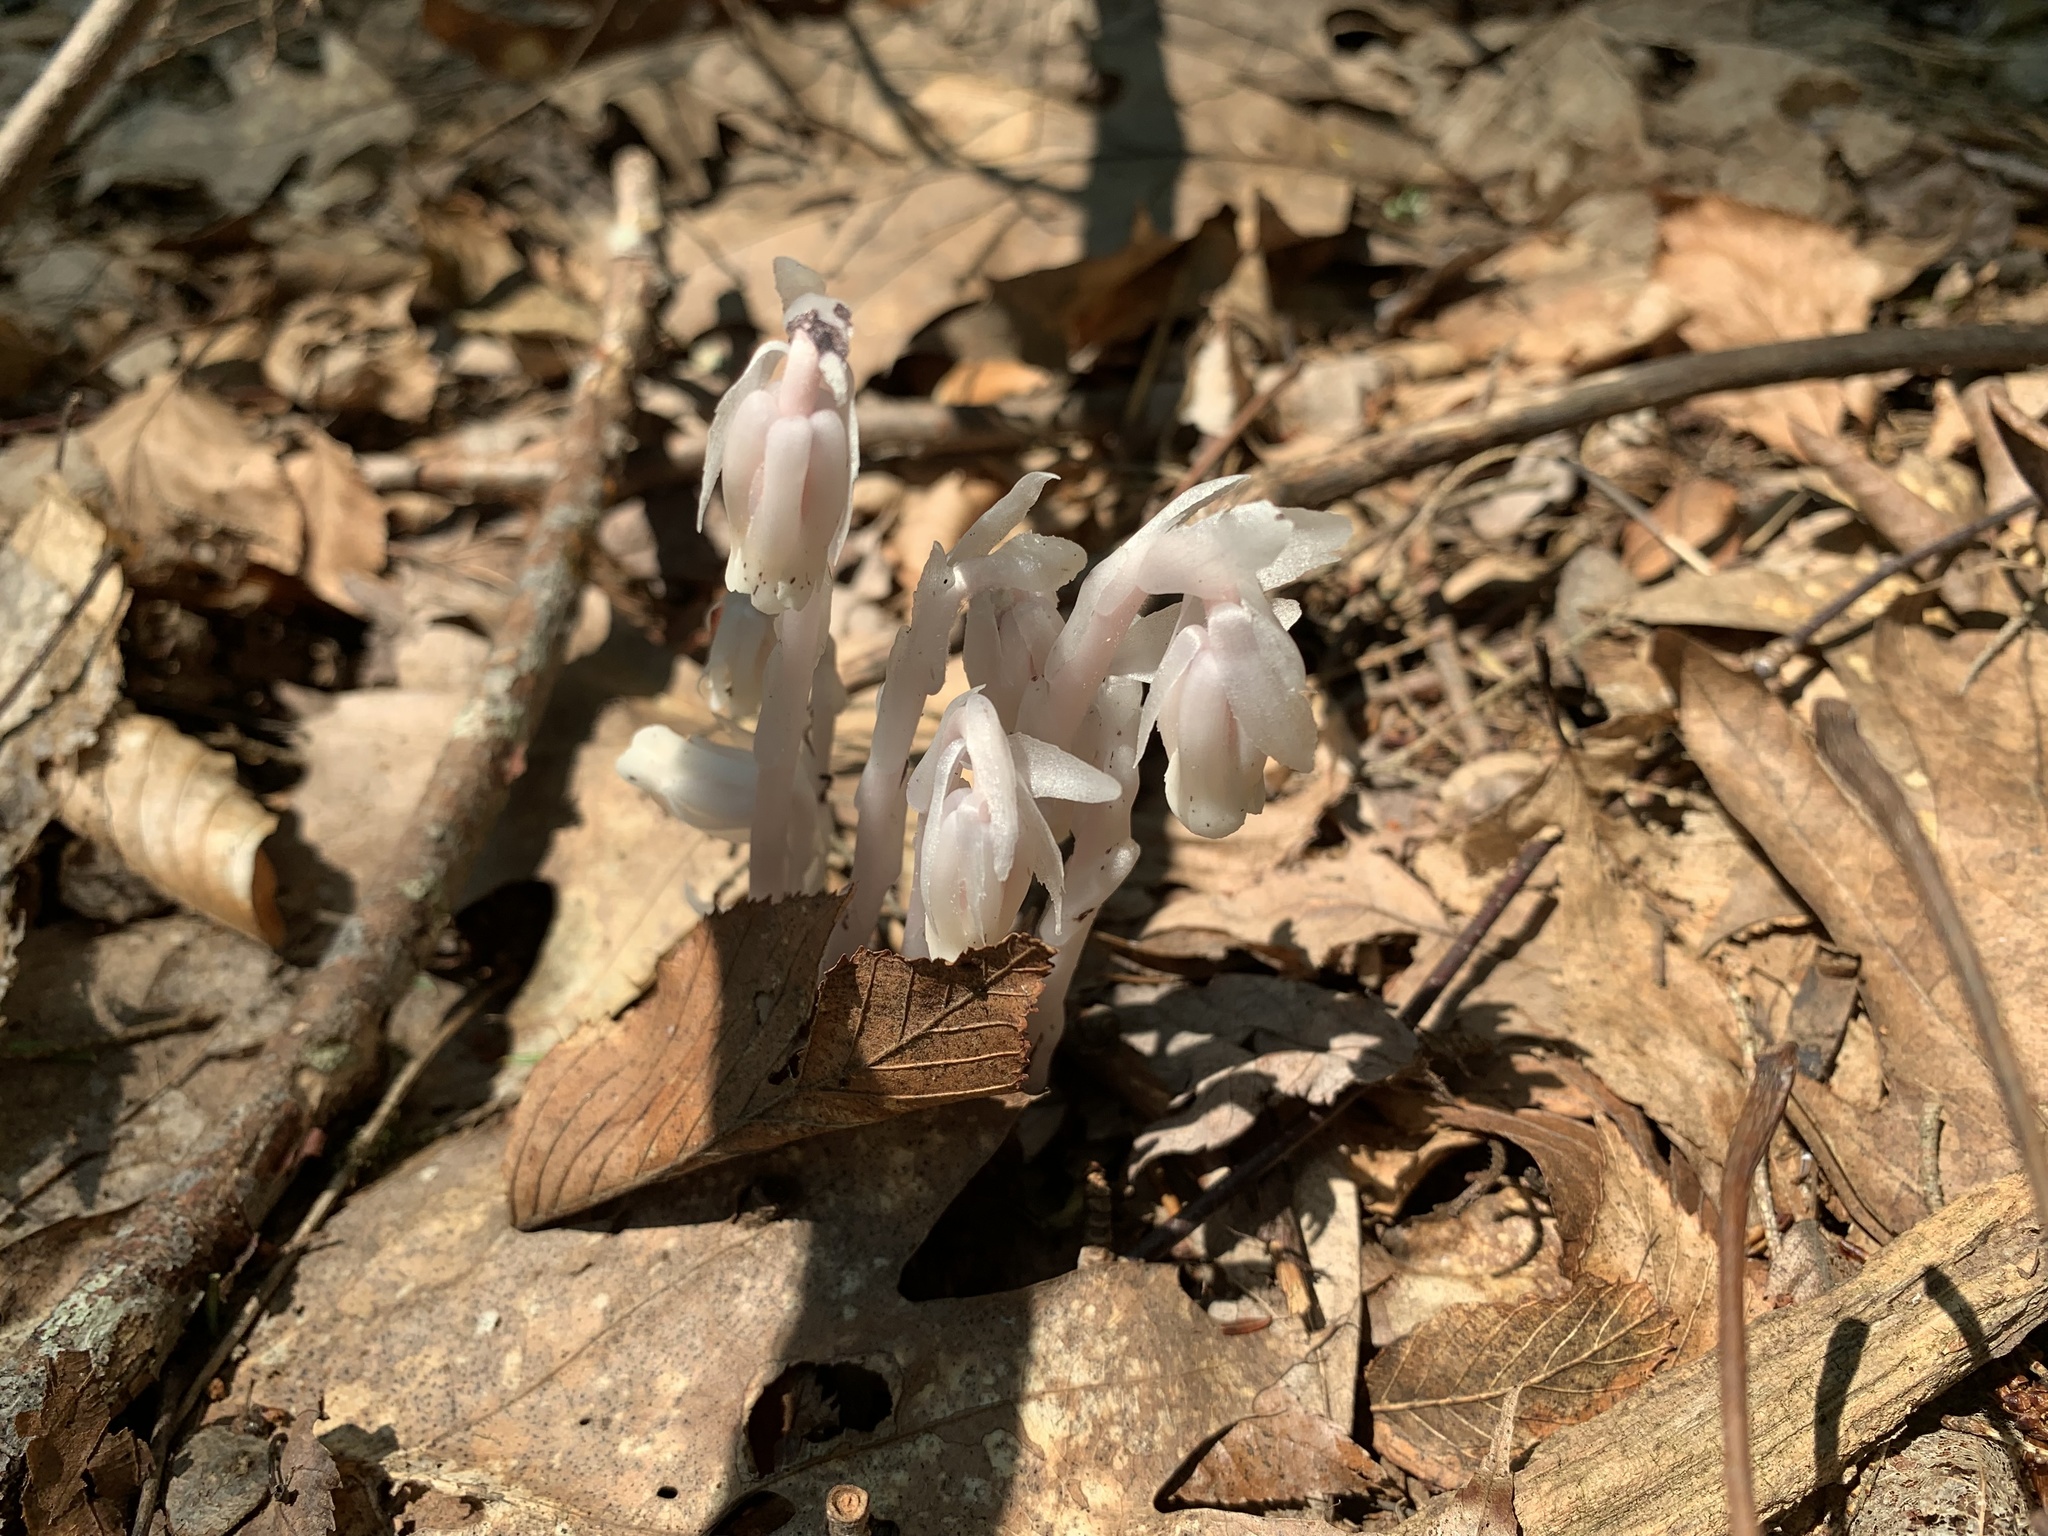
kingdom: Plantae
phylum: Tracheophyta
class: Magnoliopsida
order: Ericales
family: Ericaceae
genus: Monotropa
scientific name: Monotropa uniflora
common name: Convulsion root
